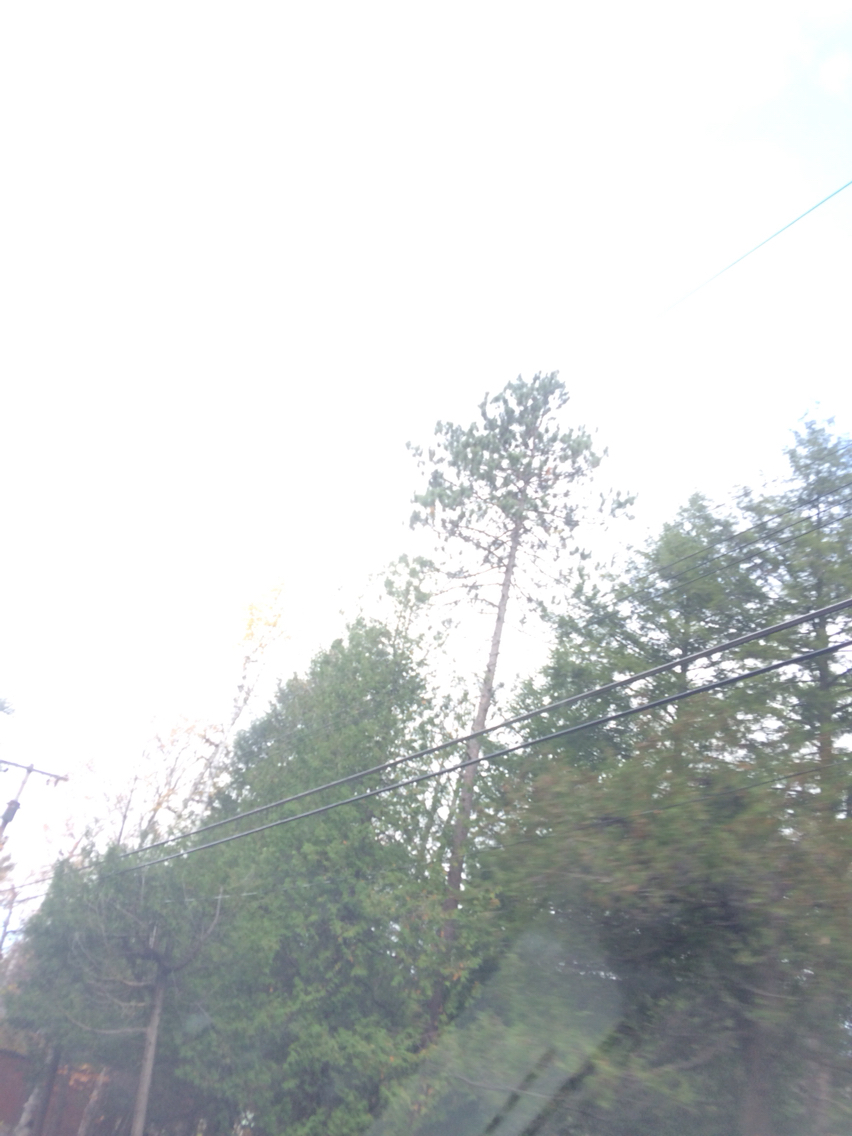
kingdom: Plantae
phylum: Tracheophyta
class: Pinopsida
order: Pinales
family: Pinaceae
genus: Pinus
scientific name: Pinus resinosa
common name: Norway pine
